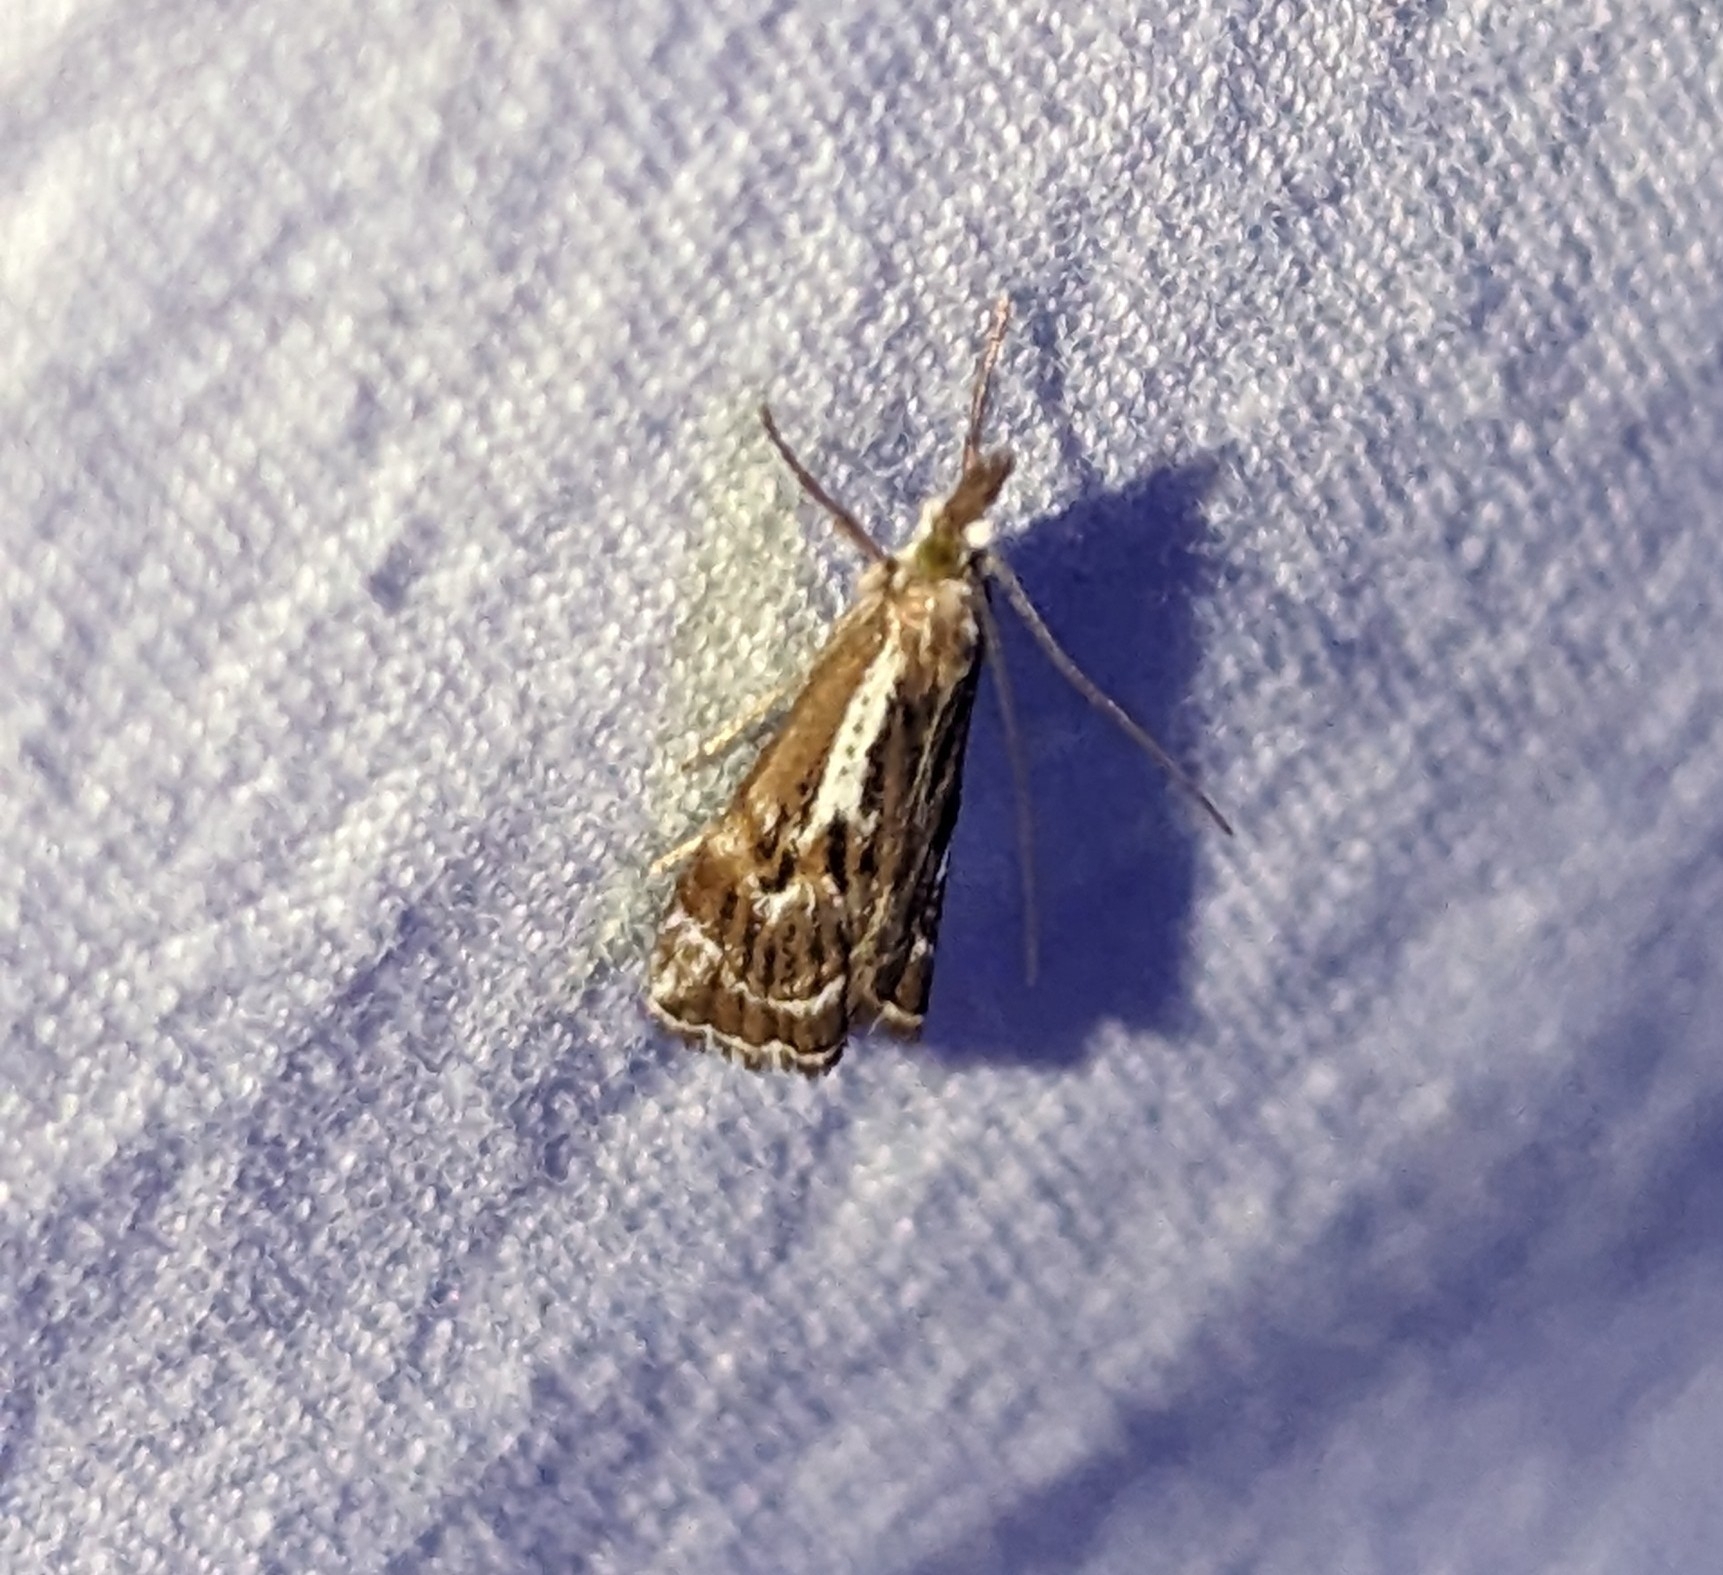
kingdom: Animalia
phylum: Arthropoda
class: Insecta
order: Lepidoptera
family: Crambidae
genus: Catoptria
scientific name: Catoptria oregonicus
